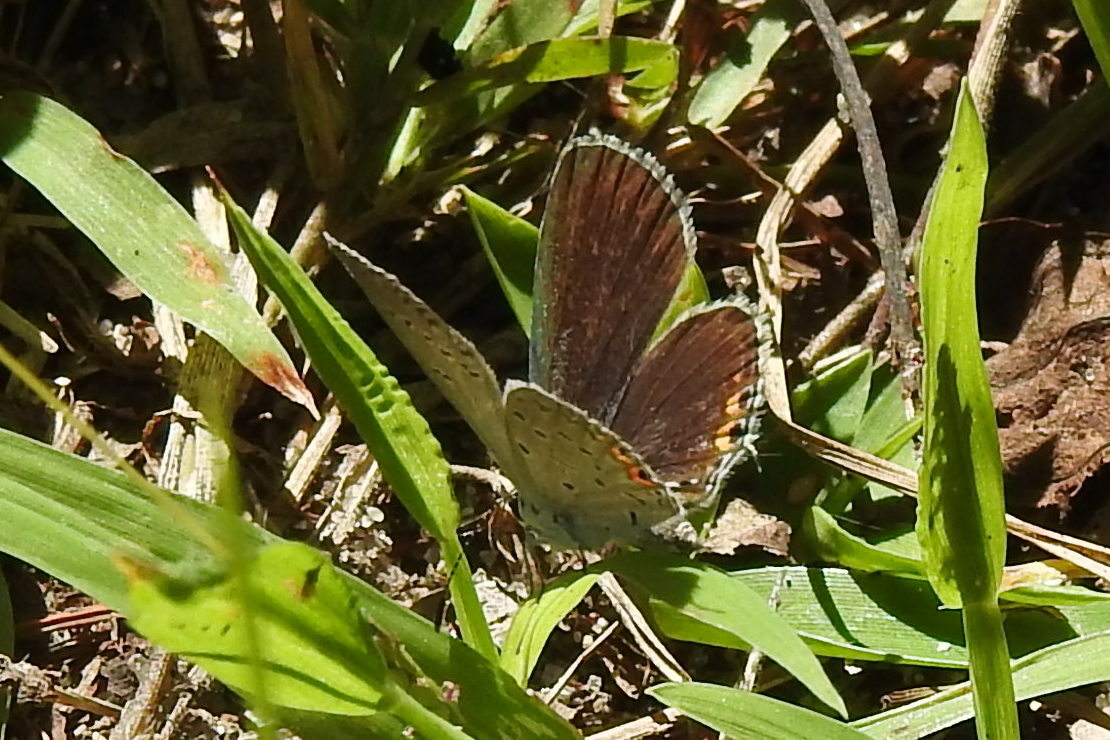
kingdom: Animalia
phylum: Arthropoda
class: Insecta
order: Lepidoptera
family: Lycaenidae
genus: Elkalyce
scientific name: Elkalyce comyntas
